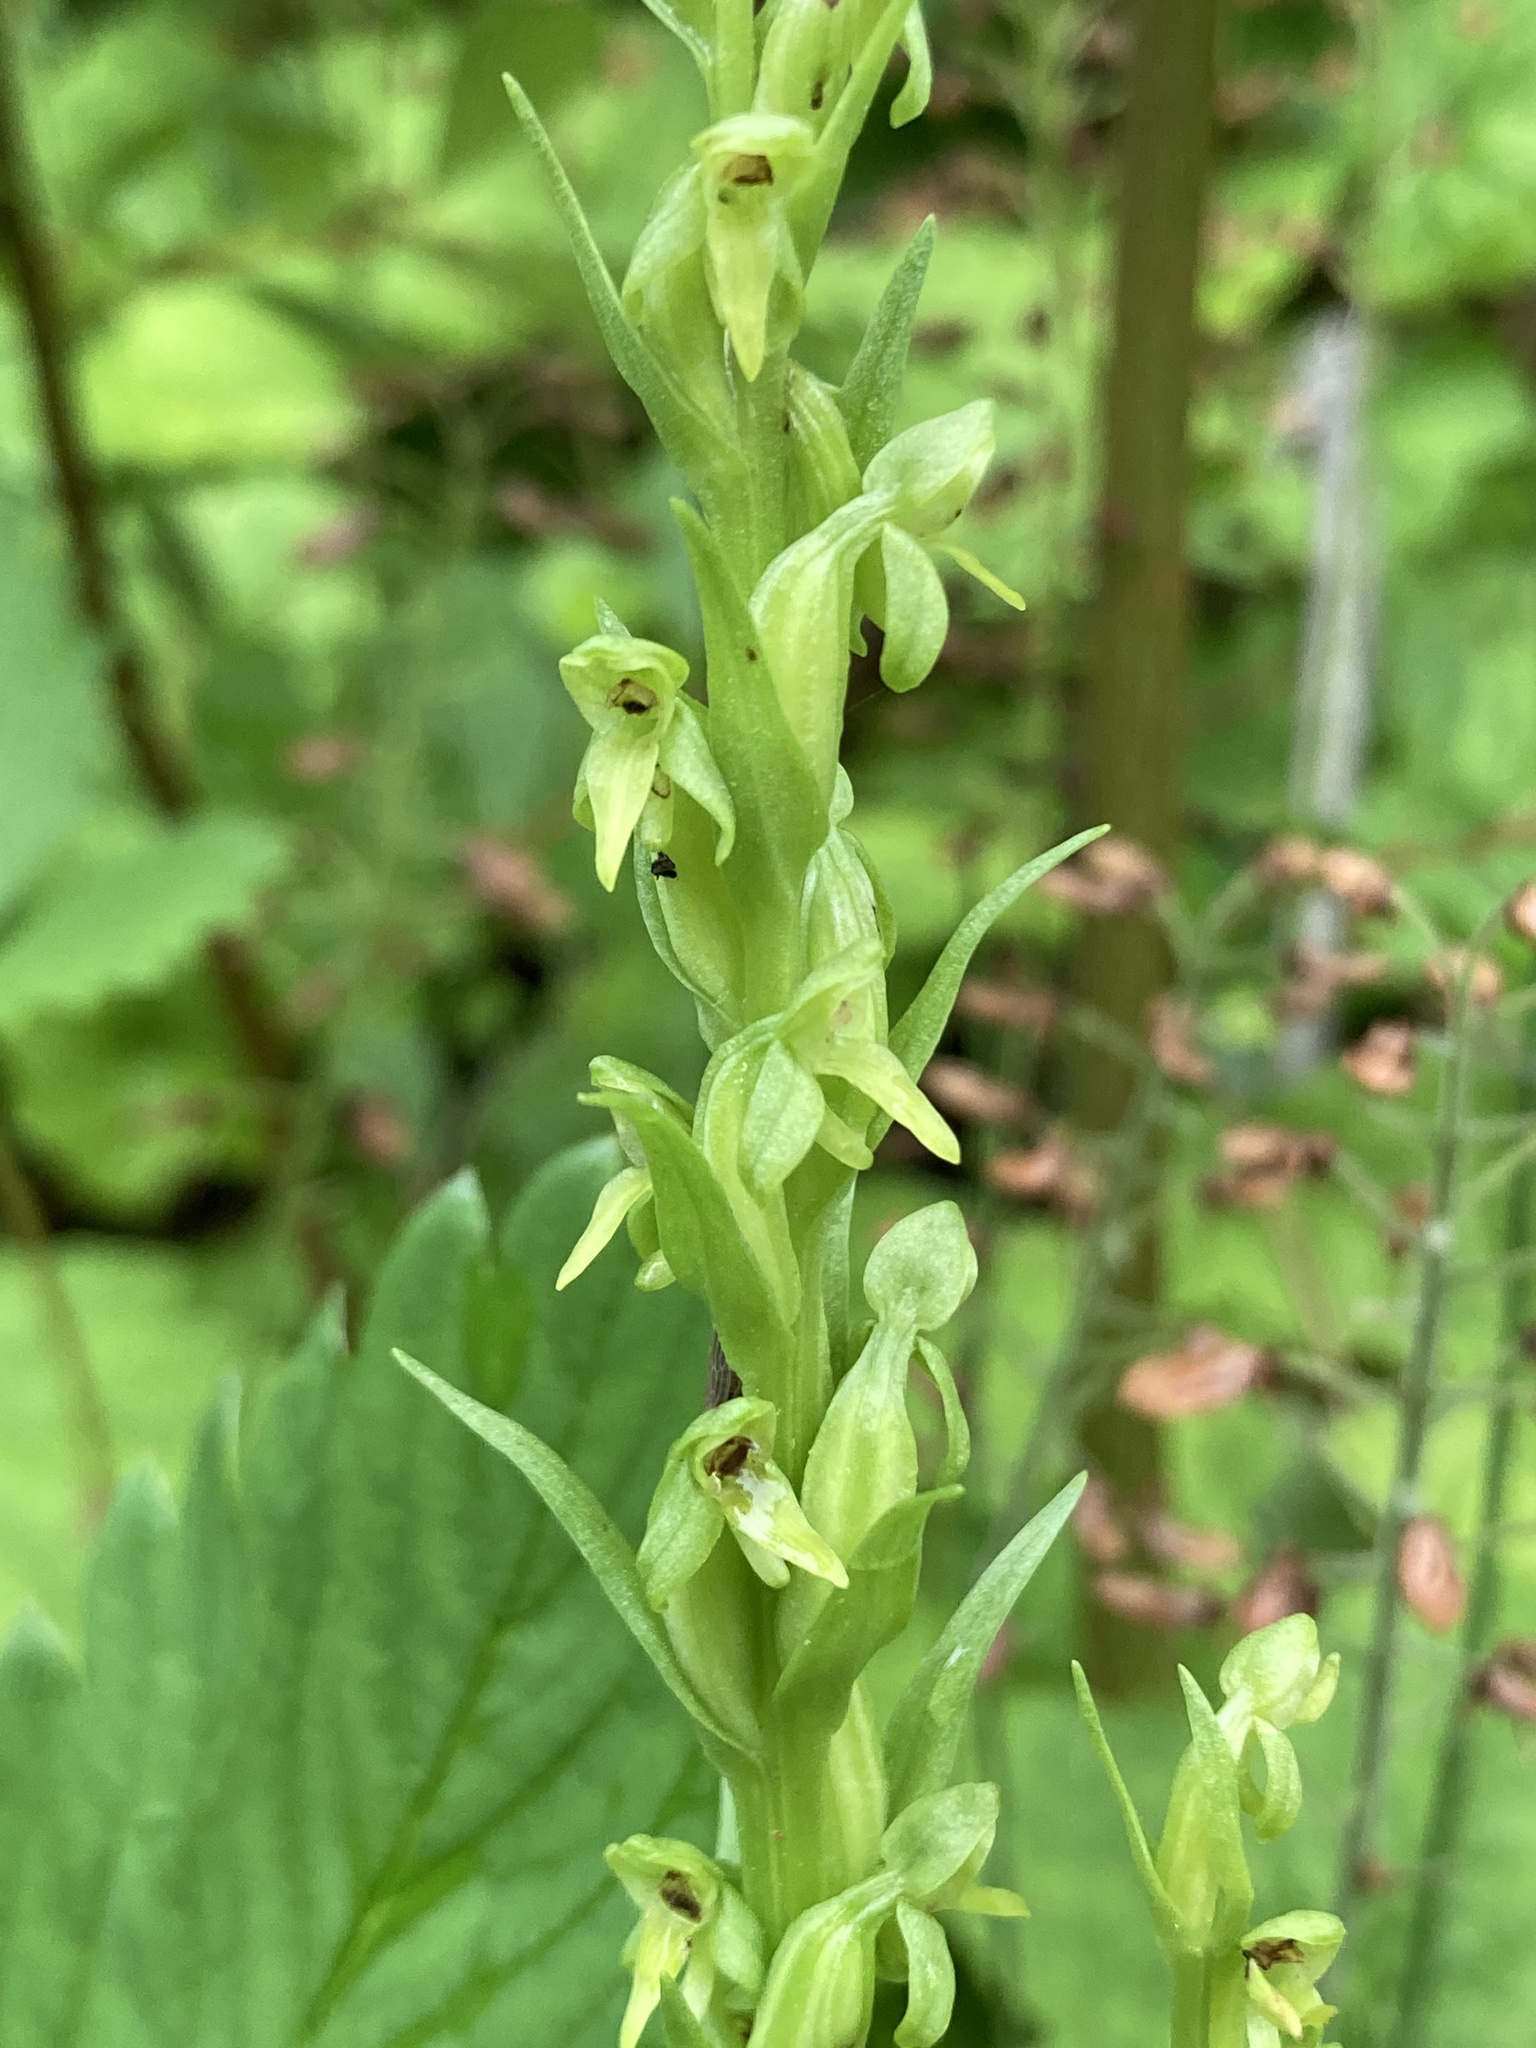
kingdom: Plantae
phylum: Tracheophyta
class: Liliopsida
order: Asparagales
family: Orchidaceae
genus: Platanthera
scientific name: Platanthera aquilonis
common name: Northern green orchid
